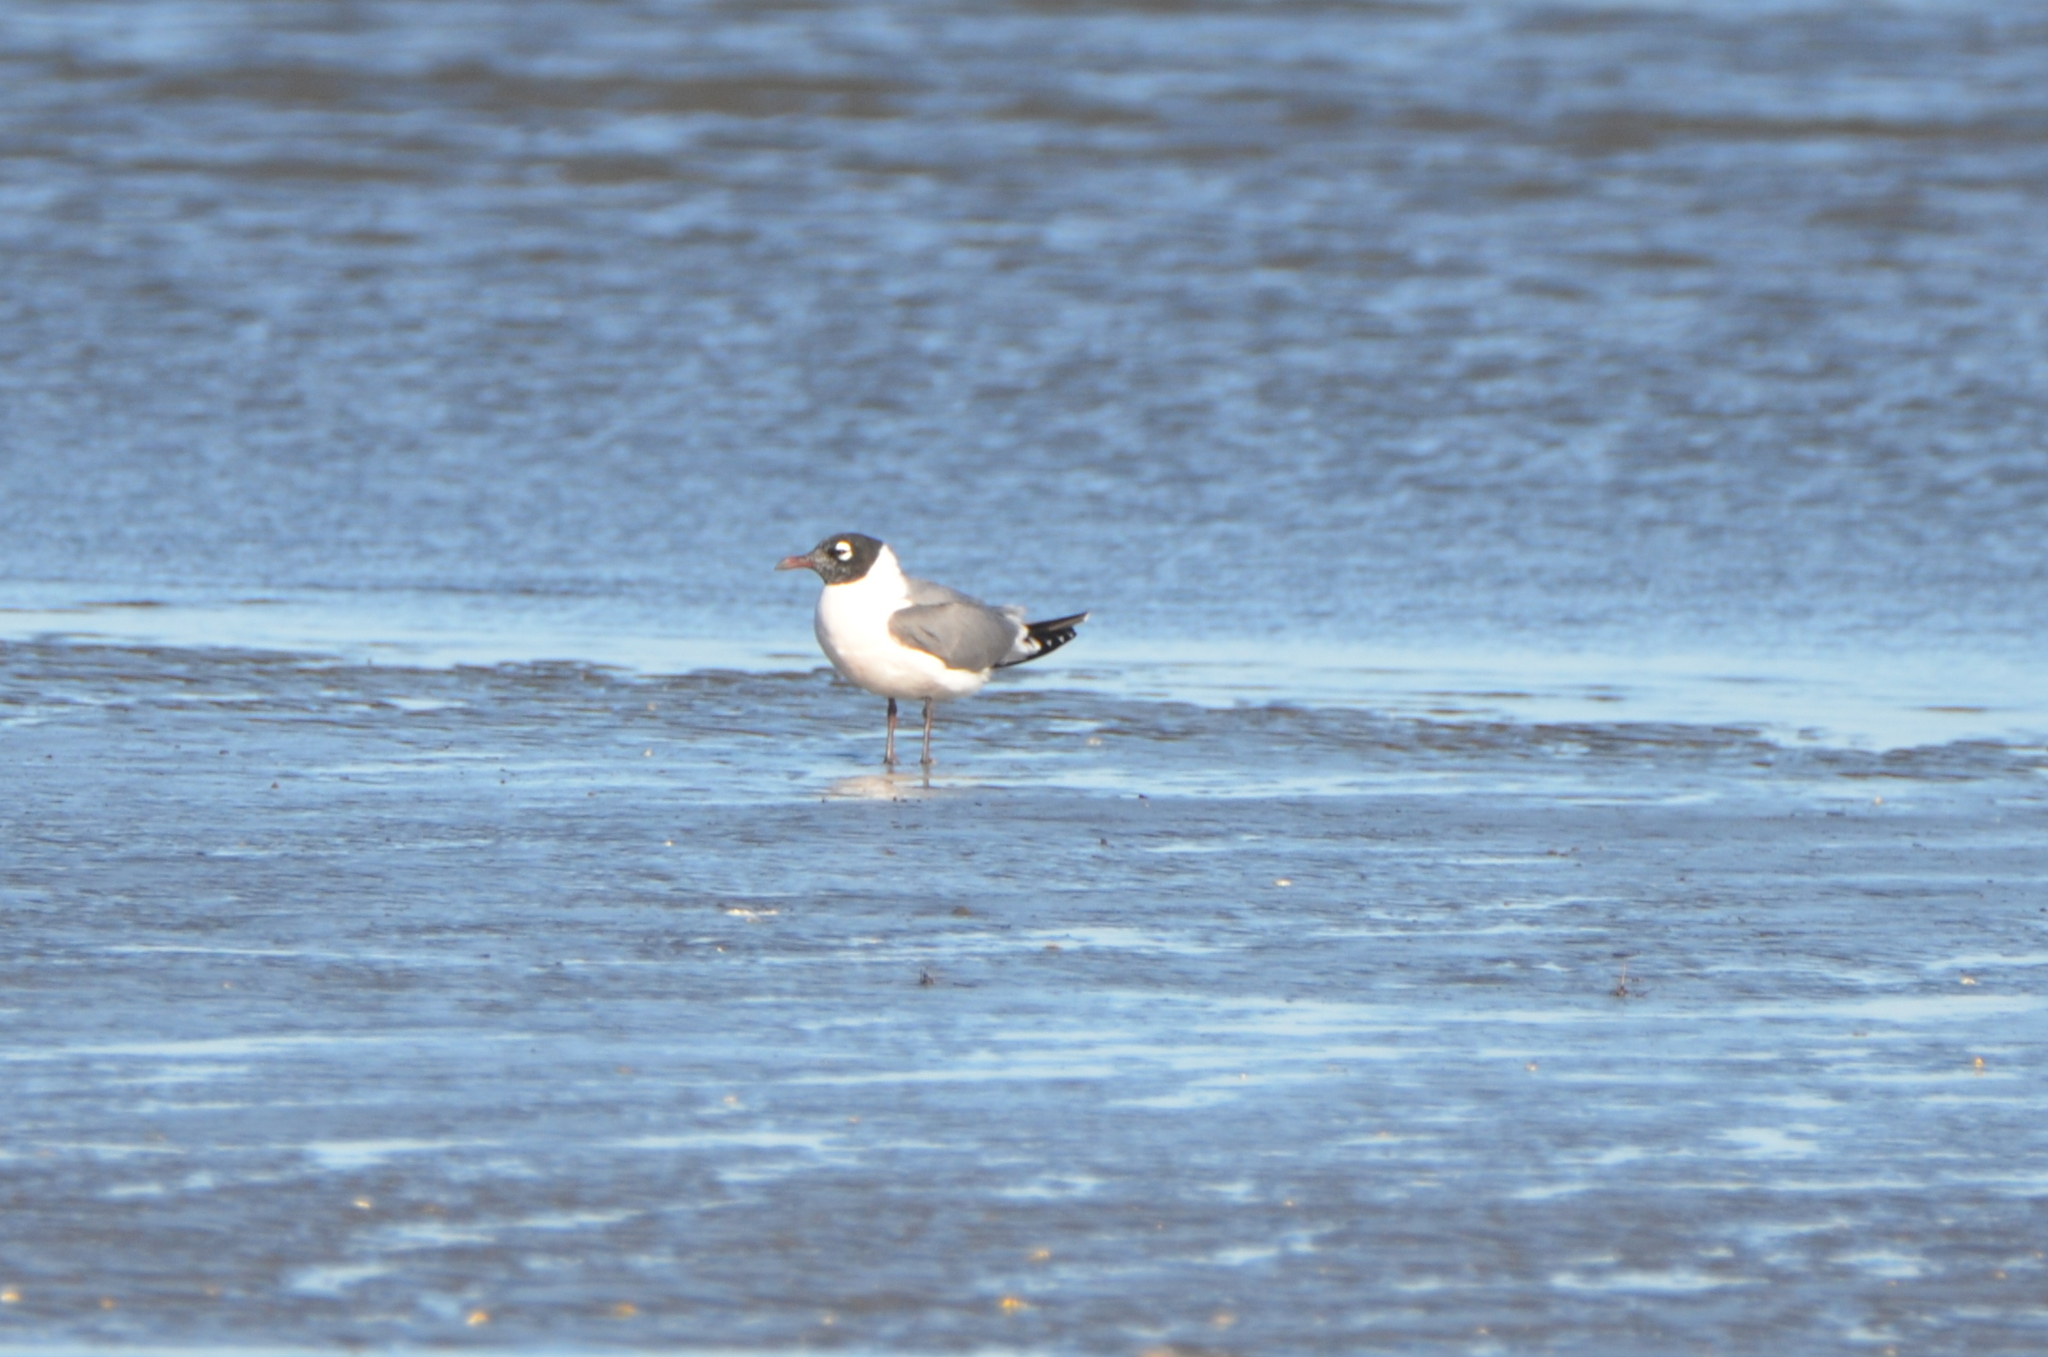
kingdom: Animalia
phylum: Chordata
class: Aves
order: Charadriiformes
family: Laridae
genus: Leucophaeus
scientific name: Leucophaeus pipixcan
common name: Franklin's gull
